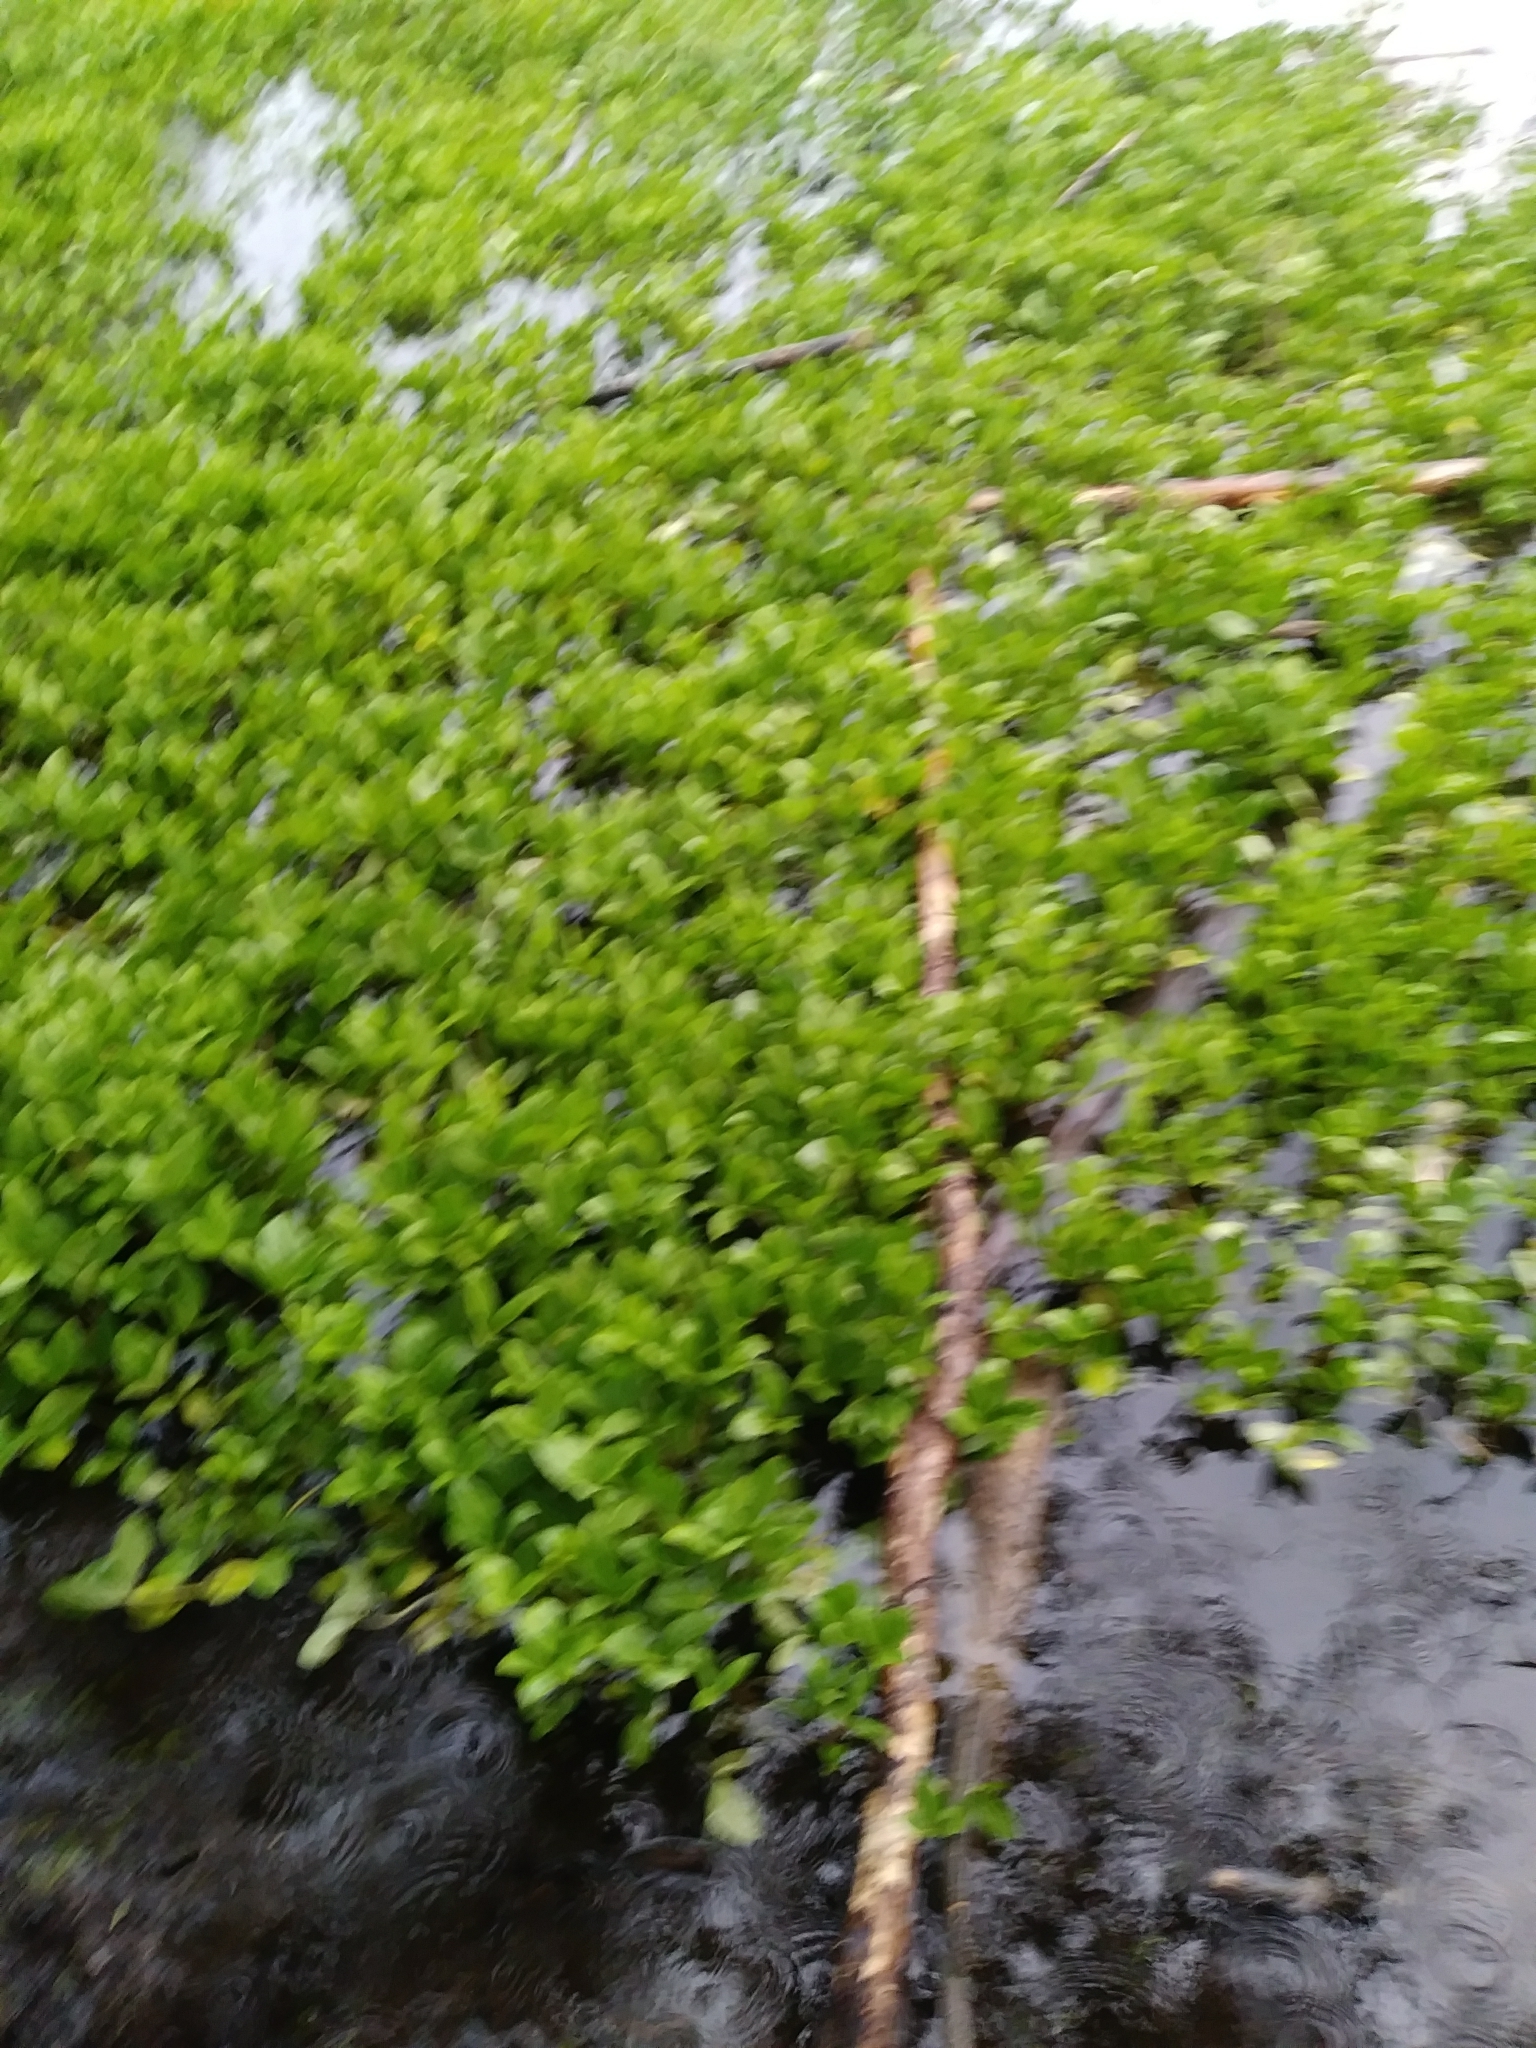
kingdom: Plantae
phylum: Tracheophyta
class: Magnoliopsida
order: Asterales
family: Menyanthaceae
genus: Menyanthes
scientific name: Menyanthes trifoliata
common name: Bogbean
